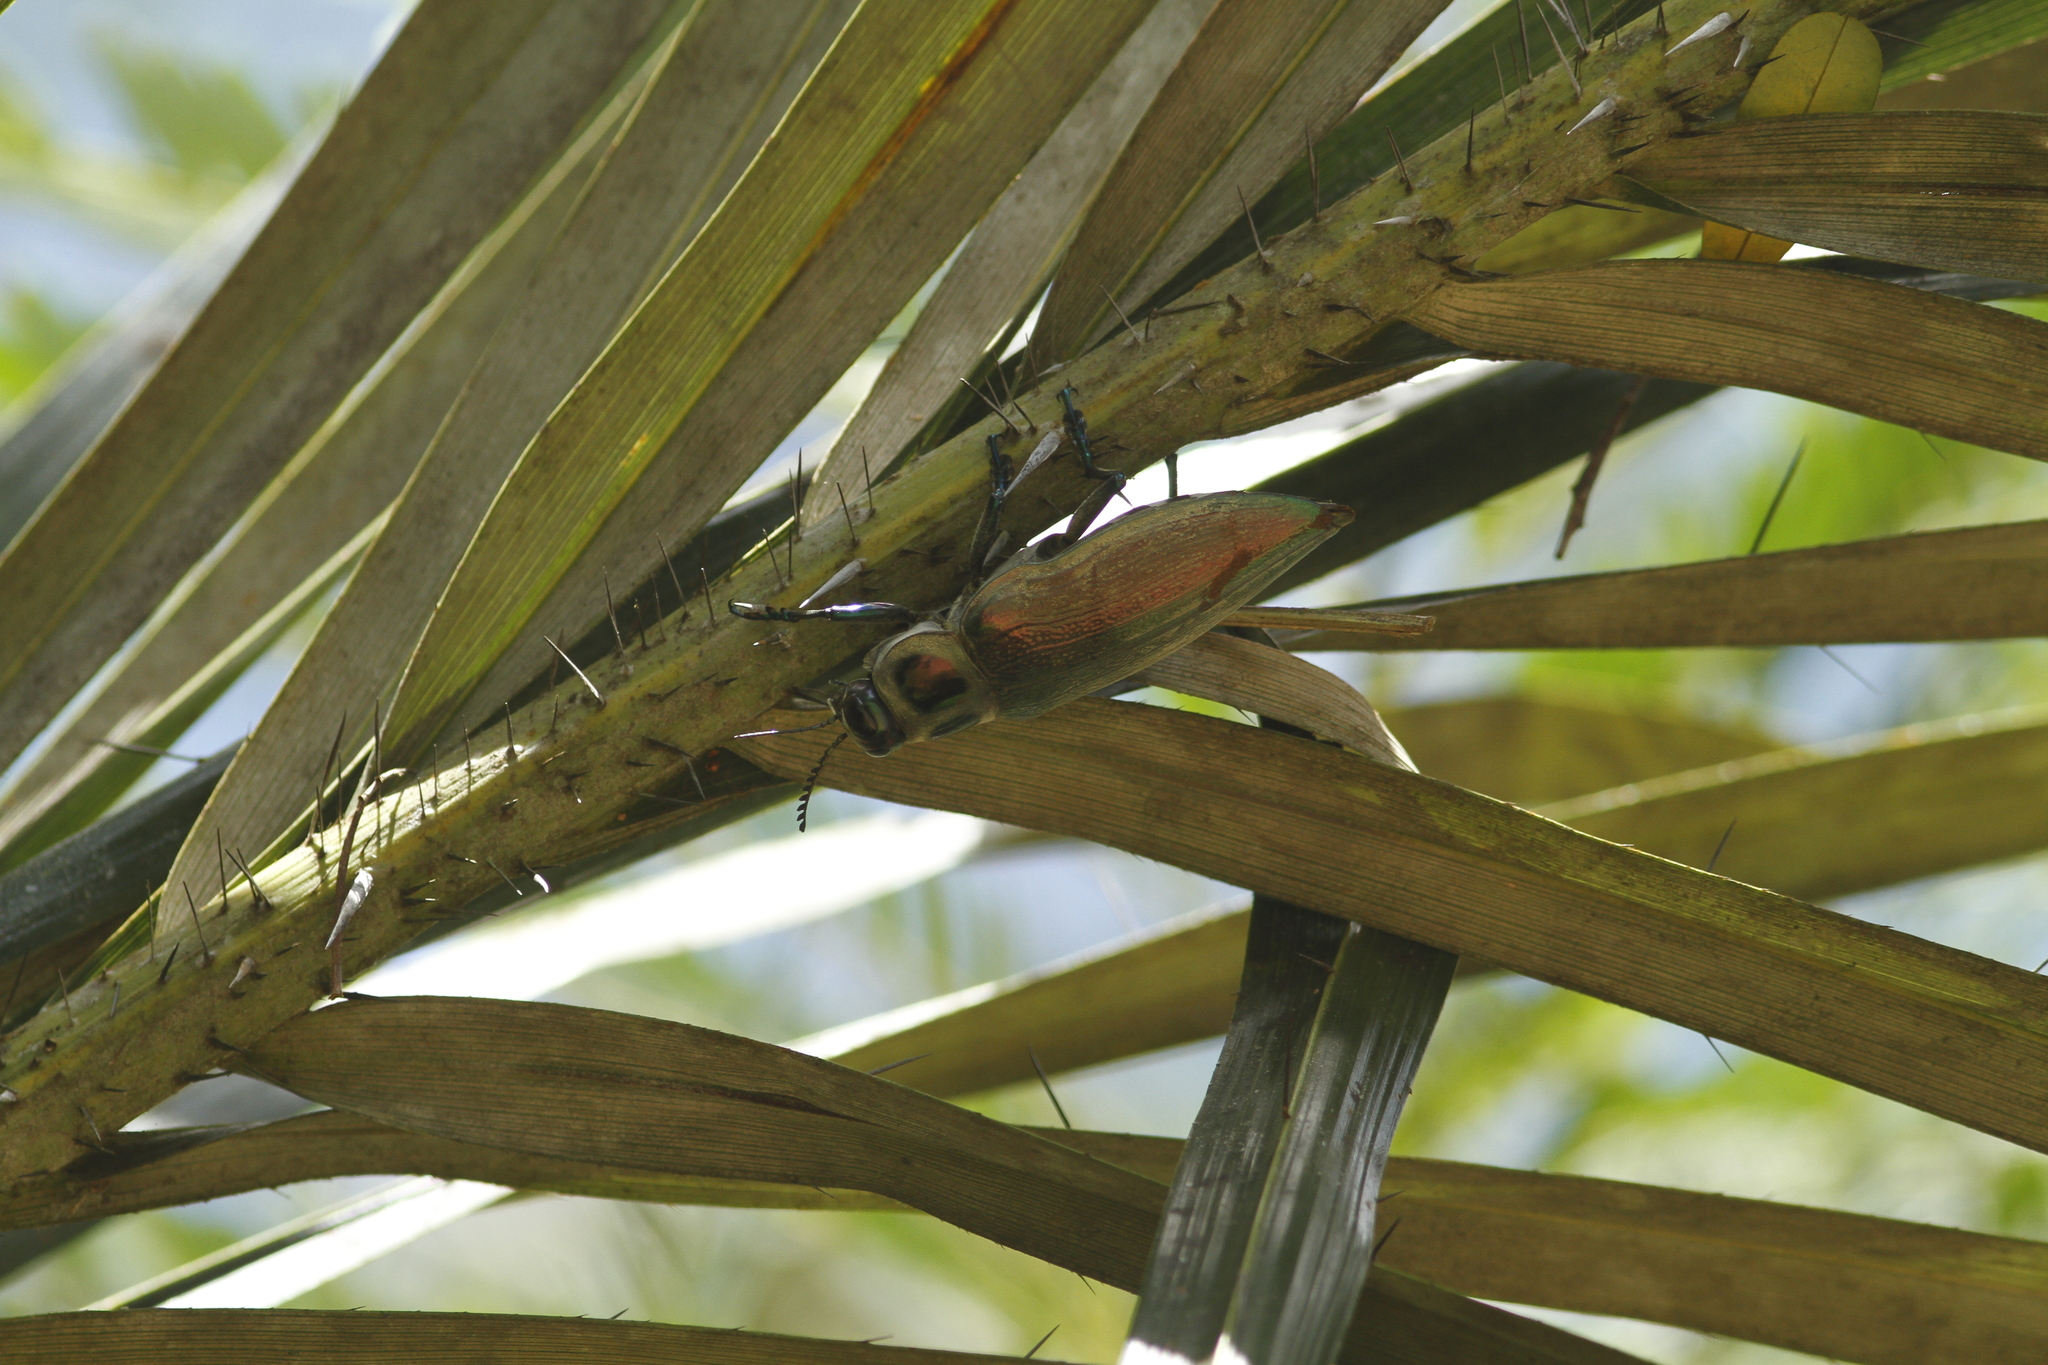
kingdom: Animalia
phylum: Arthropoda
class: Insecta
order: Coleoptera
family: Buprestidae
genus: Euchroma
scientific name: Euchroma giganteum
